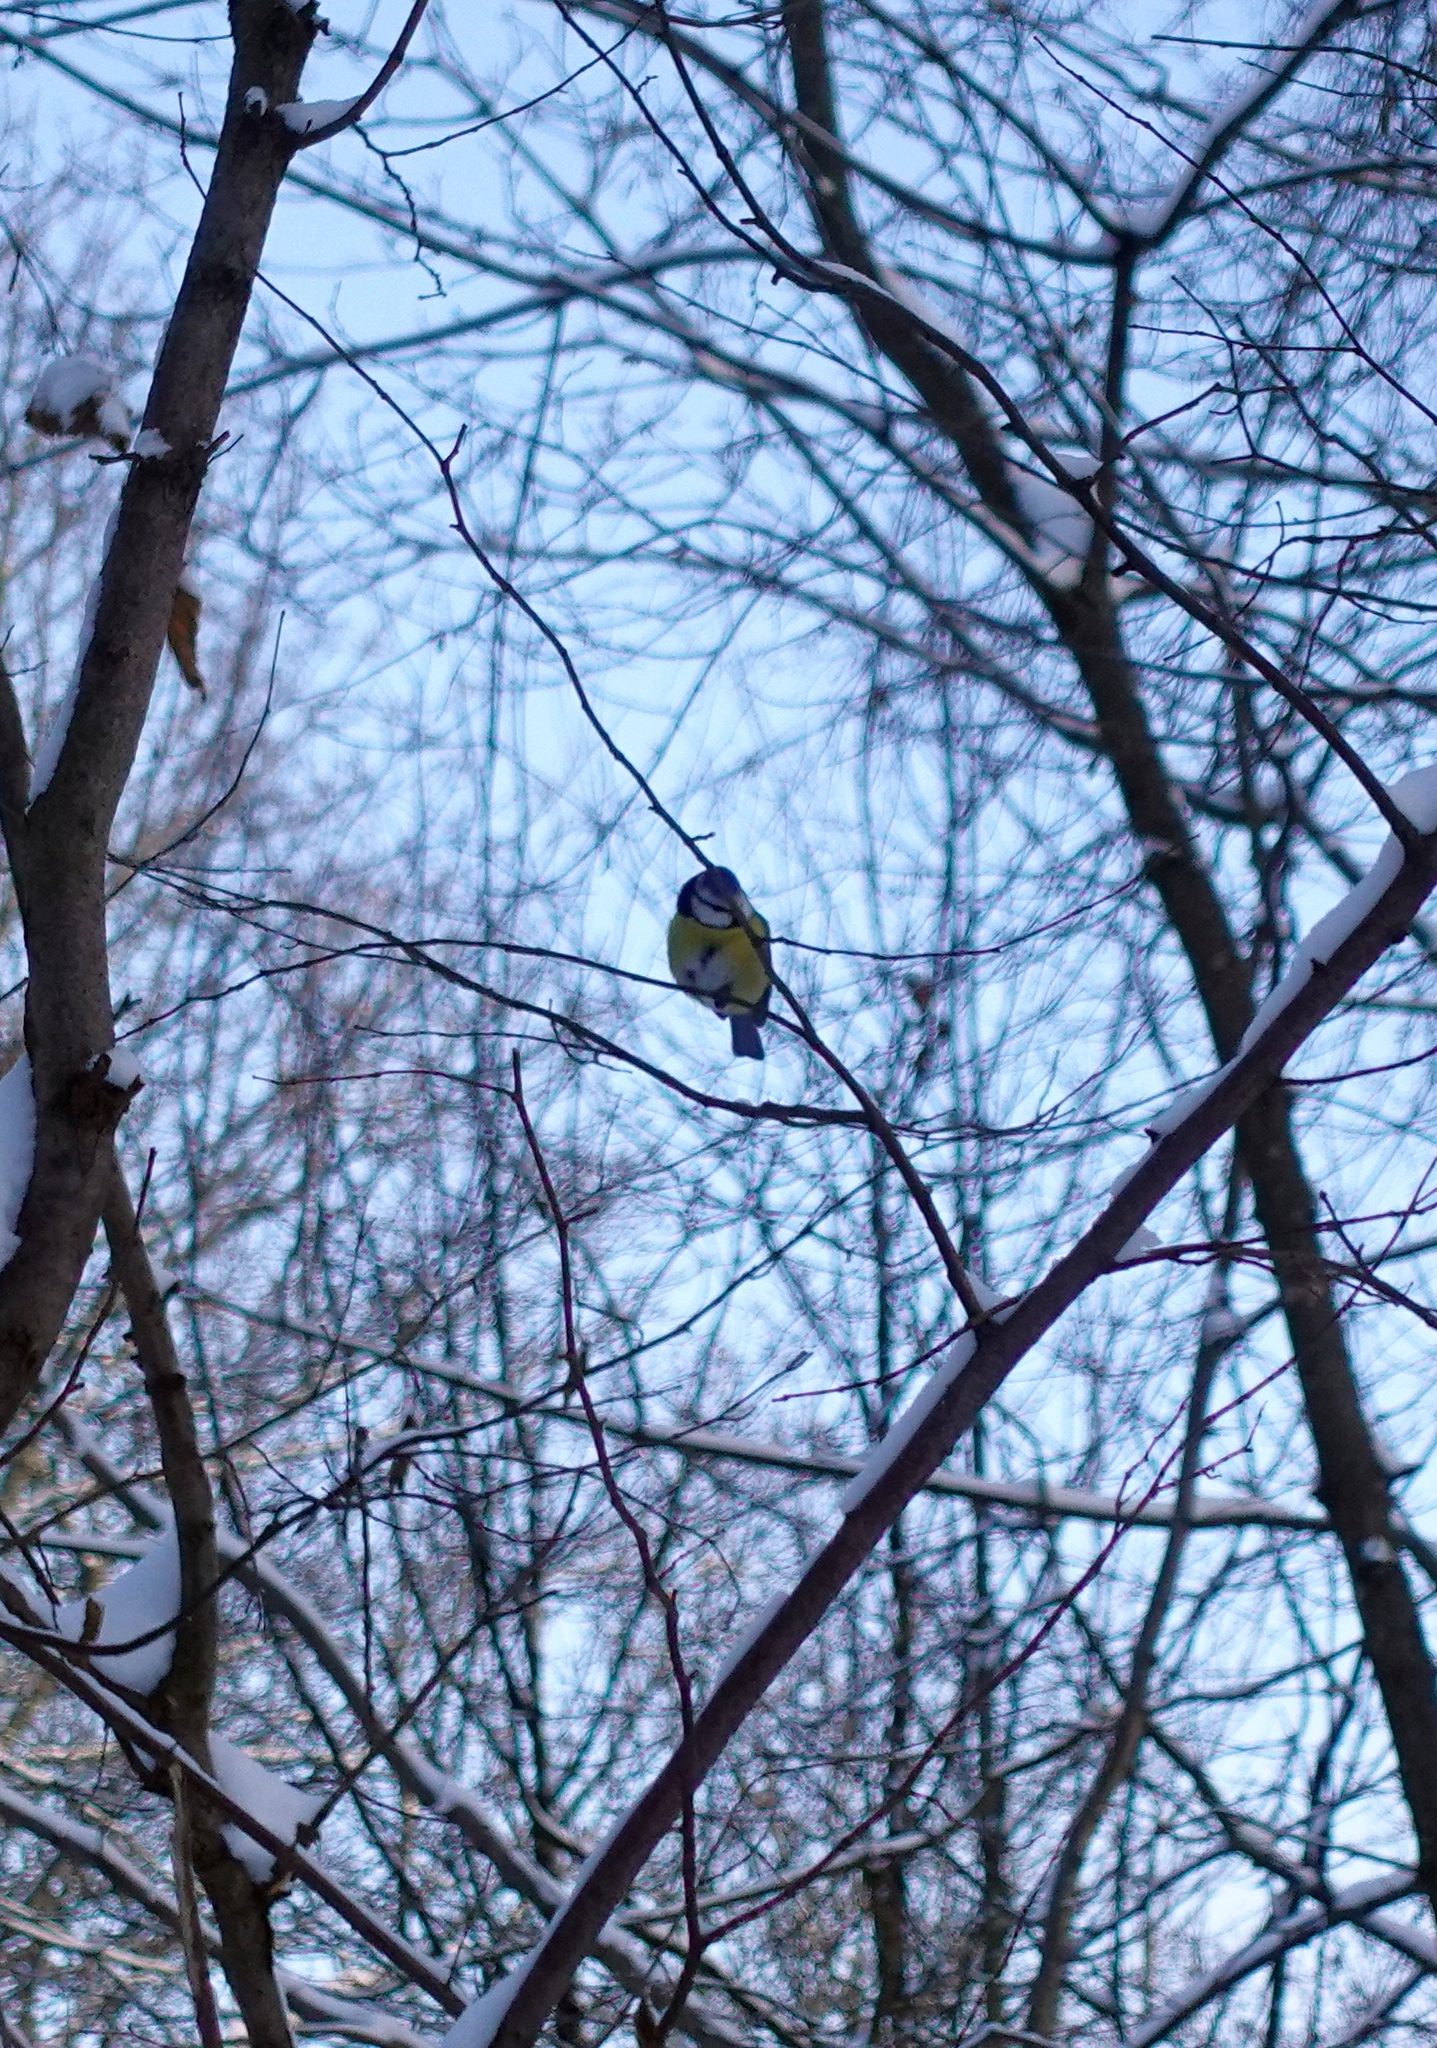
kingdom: Animalia
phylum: Chordata
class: Aves
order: Passeriformes
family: Paridae
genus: Cyanistes
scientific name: Cyanistes caeruleus
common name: Eurasian blue tit
